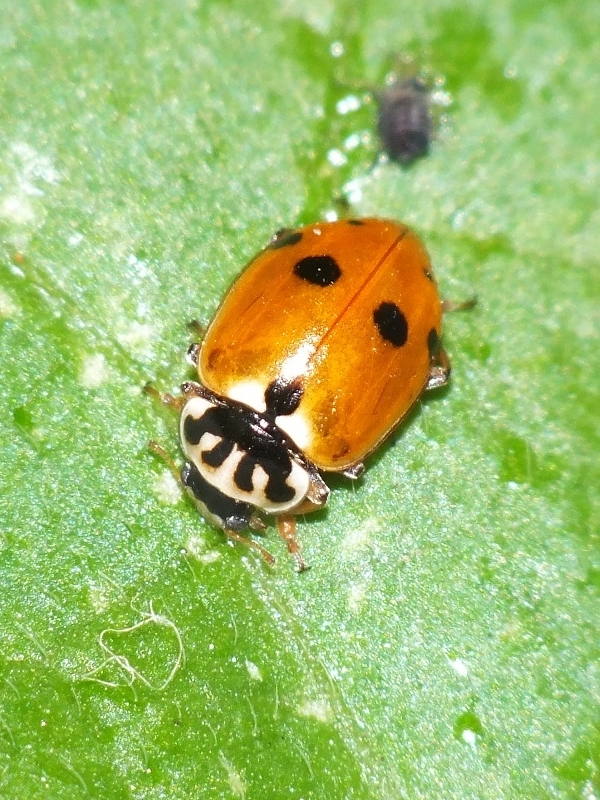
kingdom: Animalia
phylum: Arthropoda
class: Insecta
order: Coleoptera
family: Coccinellidae
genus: Hippodamia
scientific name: Hippodamia variegata
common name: Ladybird beetle
